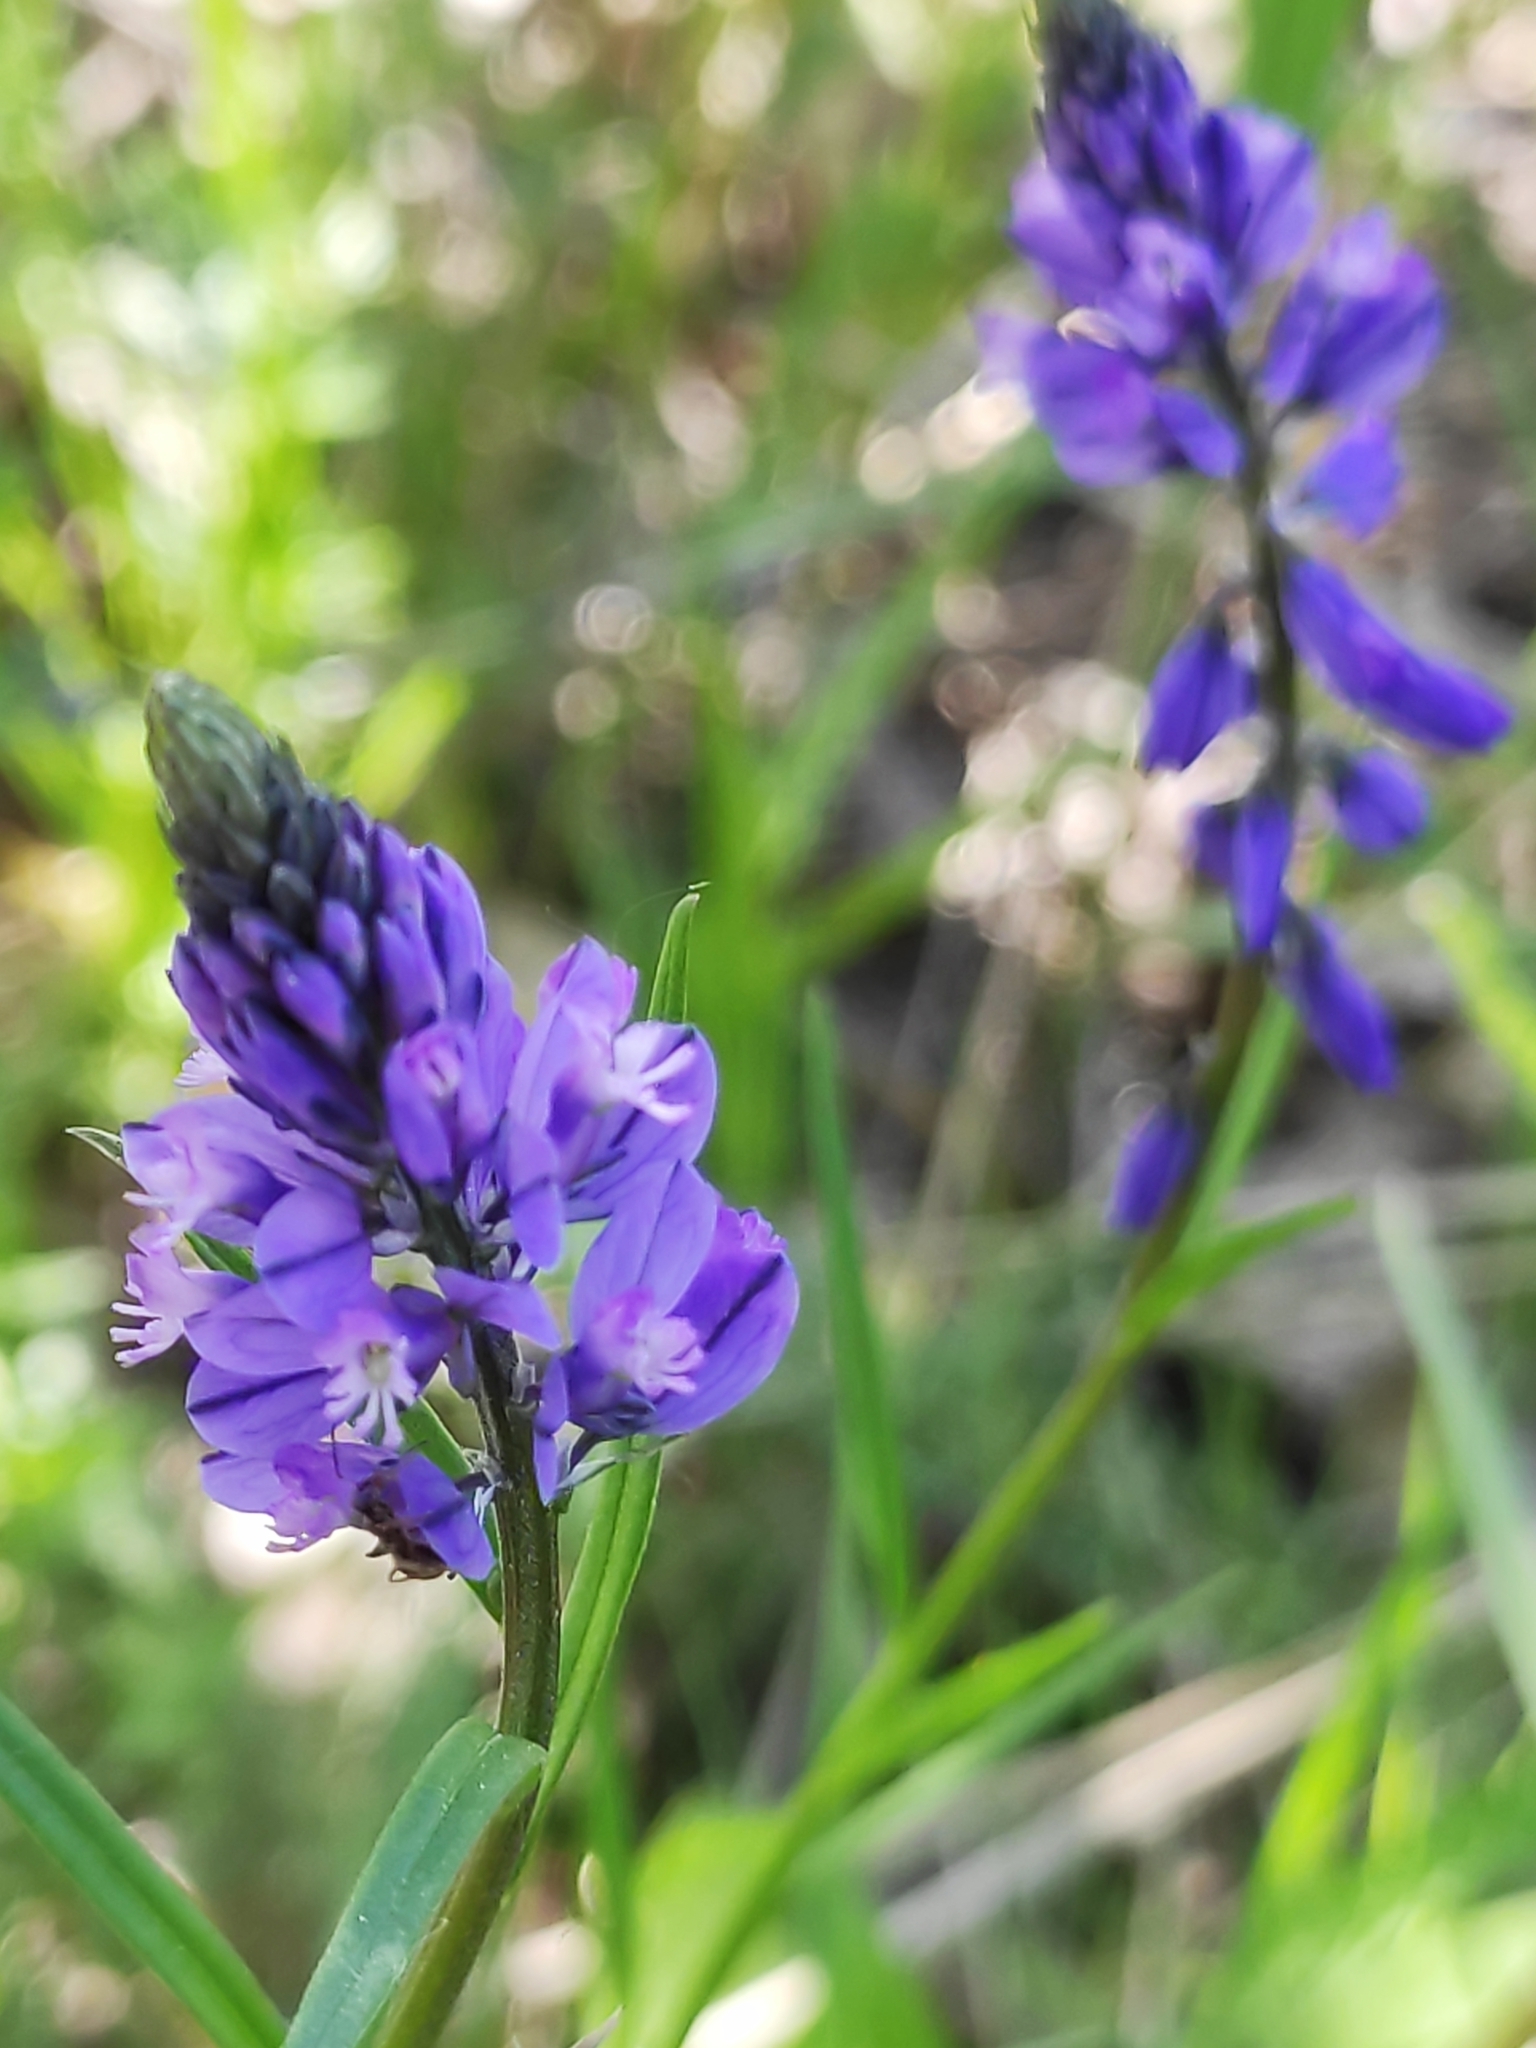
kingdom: Plantae
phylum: Tracheophyta
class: Magnoliopsida
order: Fabales
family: Polygalaceae
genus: Polygala
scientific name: Polygala comosa
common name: Tufted milkwort
